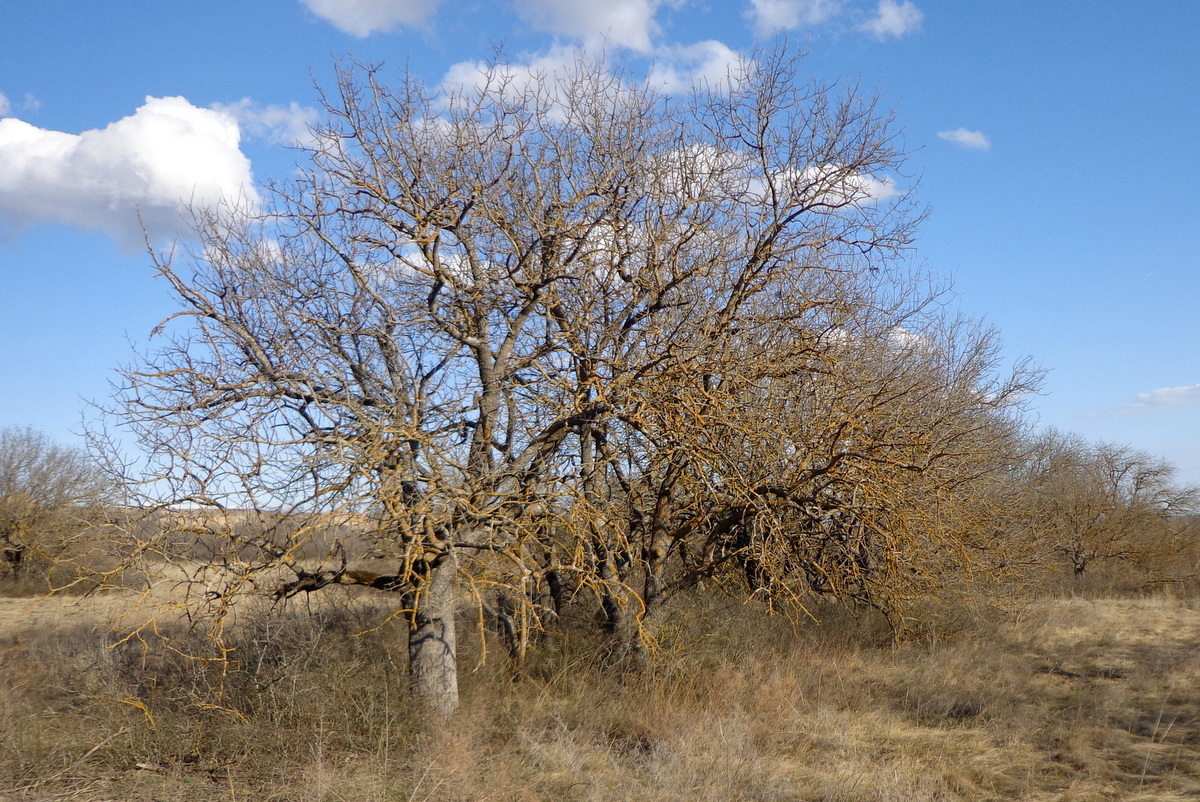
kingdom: Plantae
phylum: Tracheophyta
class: Magnoliopsida
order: Sapindales
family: Anacardiaceae
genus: Pistacia
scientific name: Pistacia atlantica
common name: Mt. atlas mastic tree
